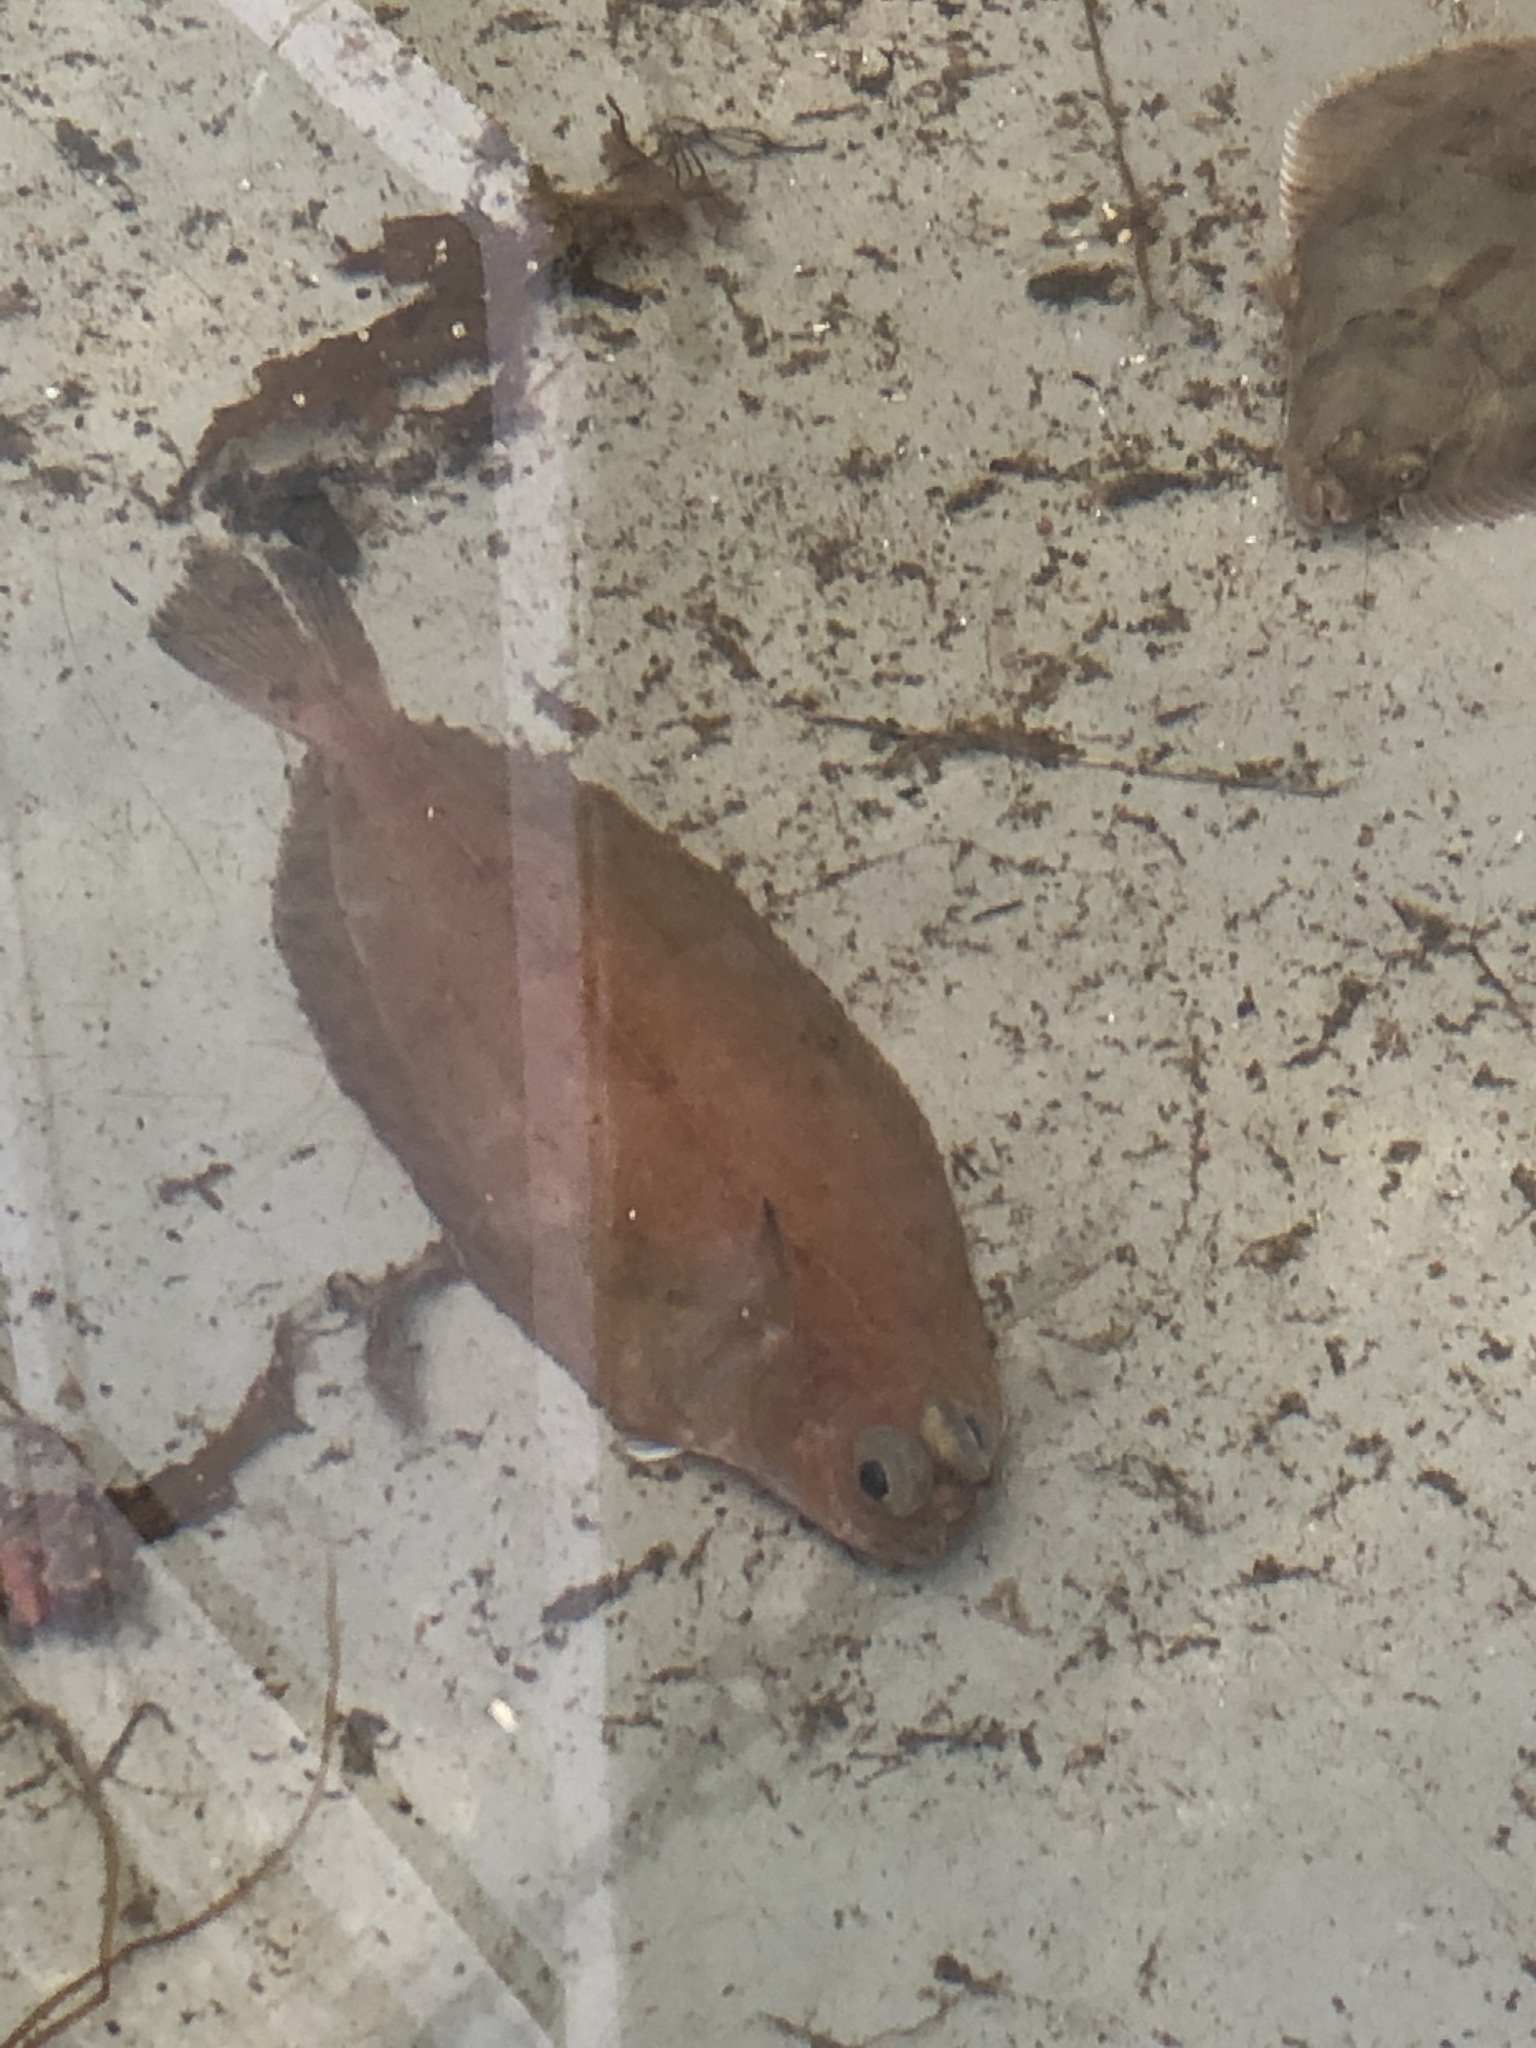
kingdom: Animalia
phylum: Chordata
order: Pleuronectiformes
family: Pleuronectidae
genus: Glyptocephalus
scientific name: Glyptocephalus cynoglossus
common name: Witch
